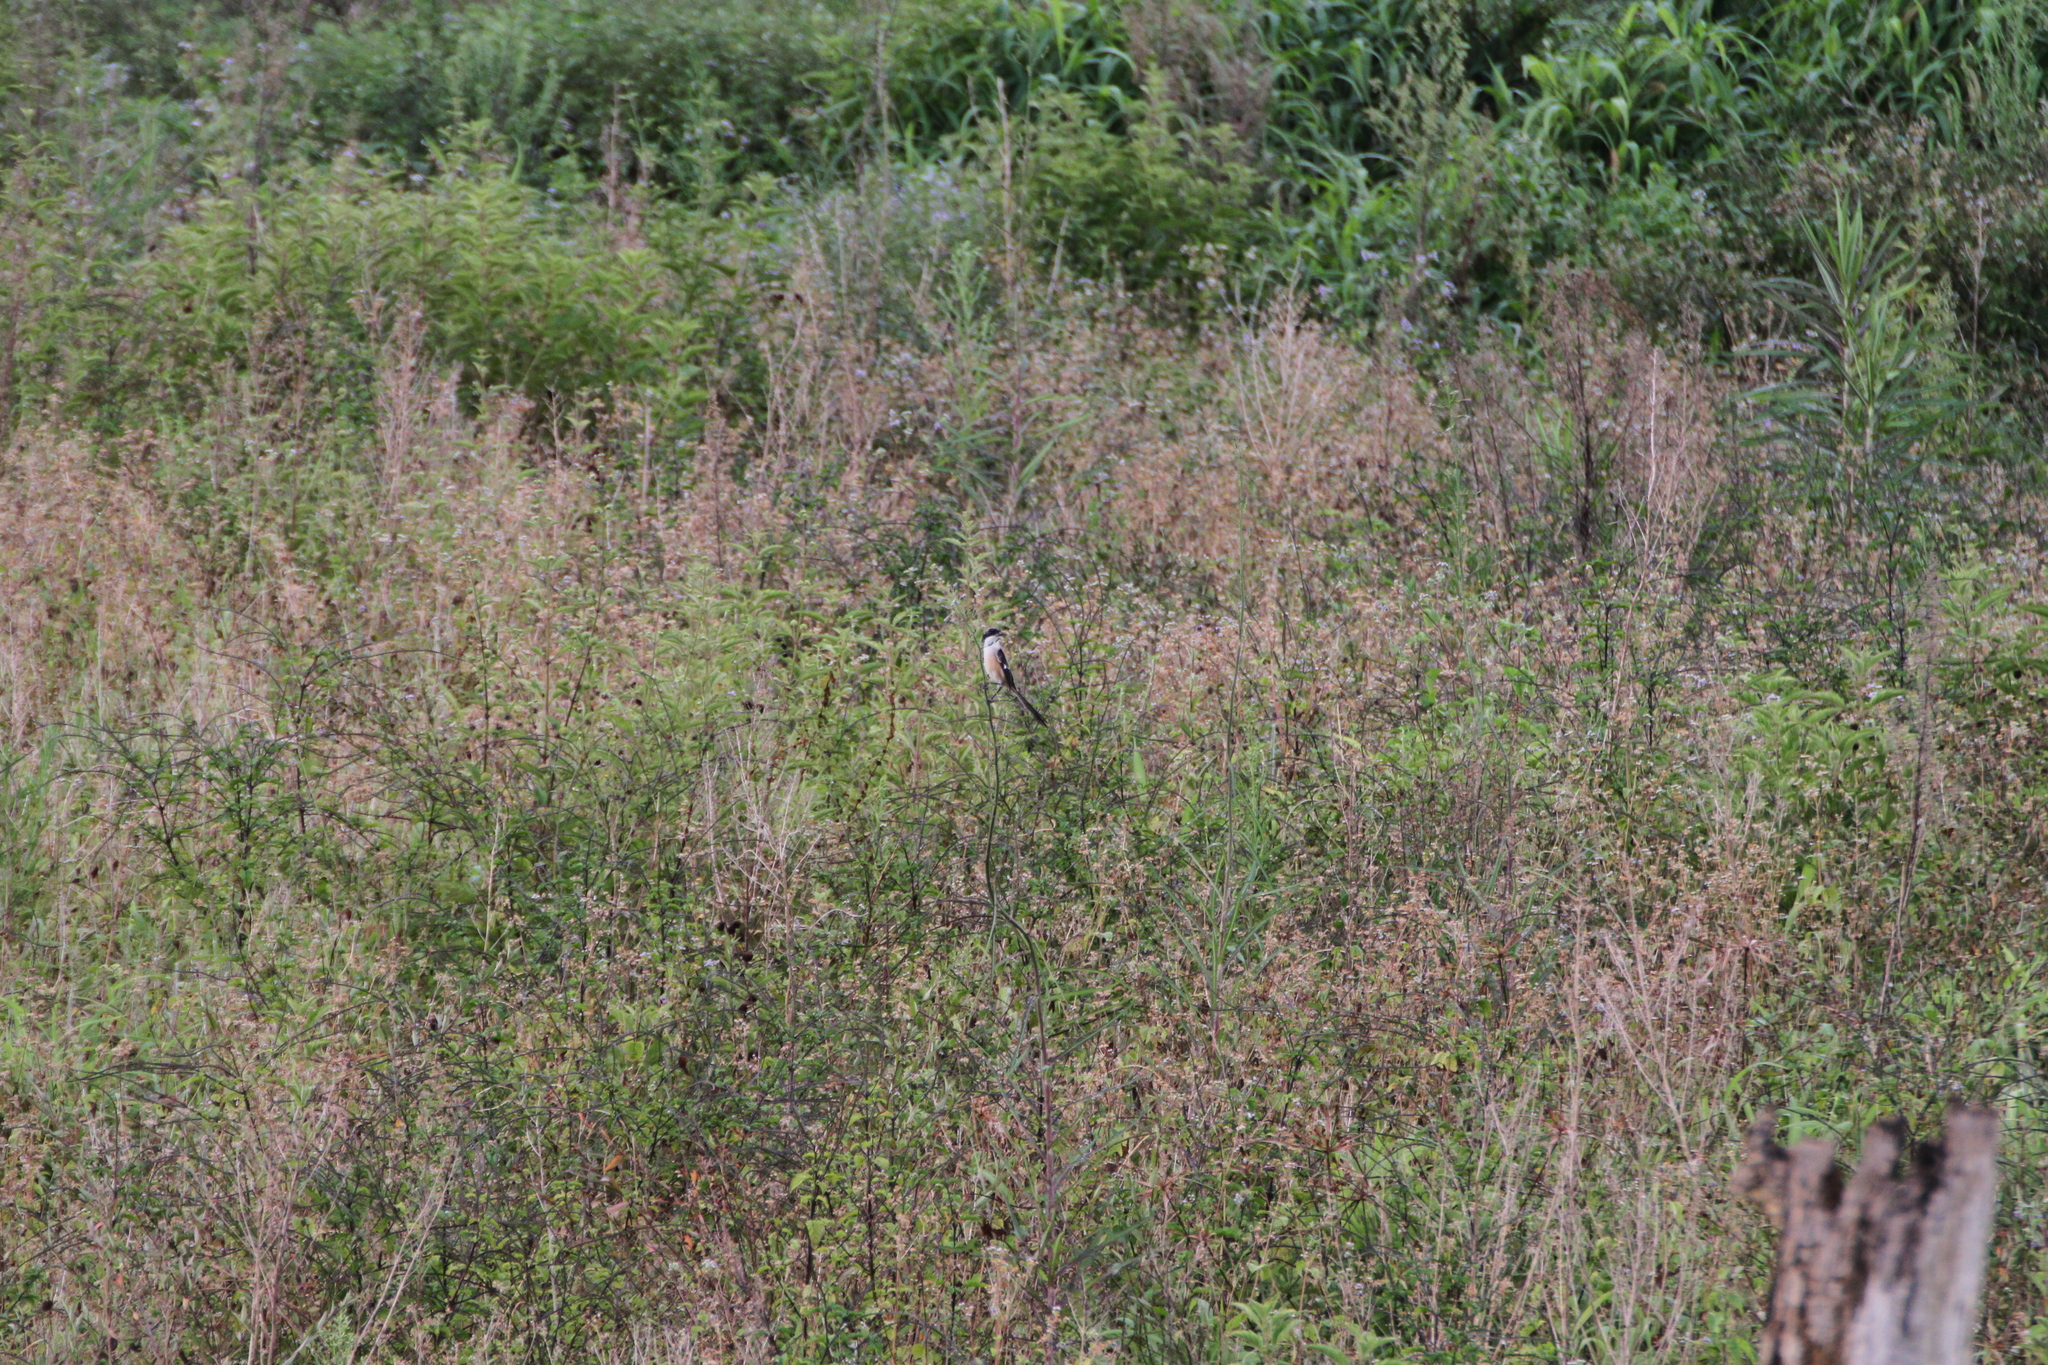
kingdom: Animalia
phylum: Chordata
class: Aves
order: Passeriformes
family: Laniidae
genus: Lanius
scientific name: Lanius schach
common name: Long-tailed shrike
